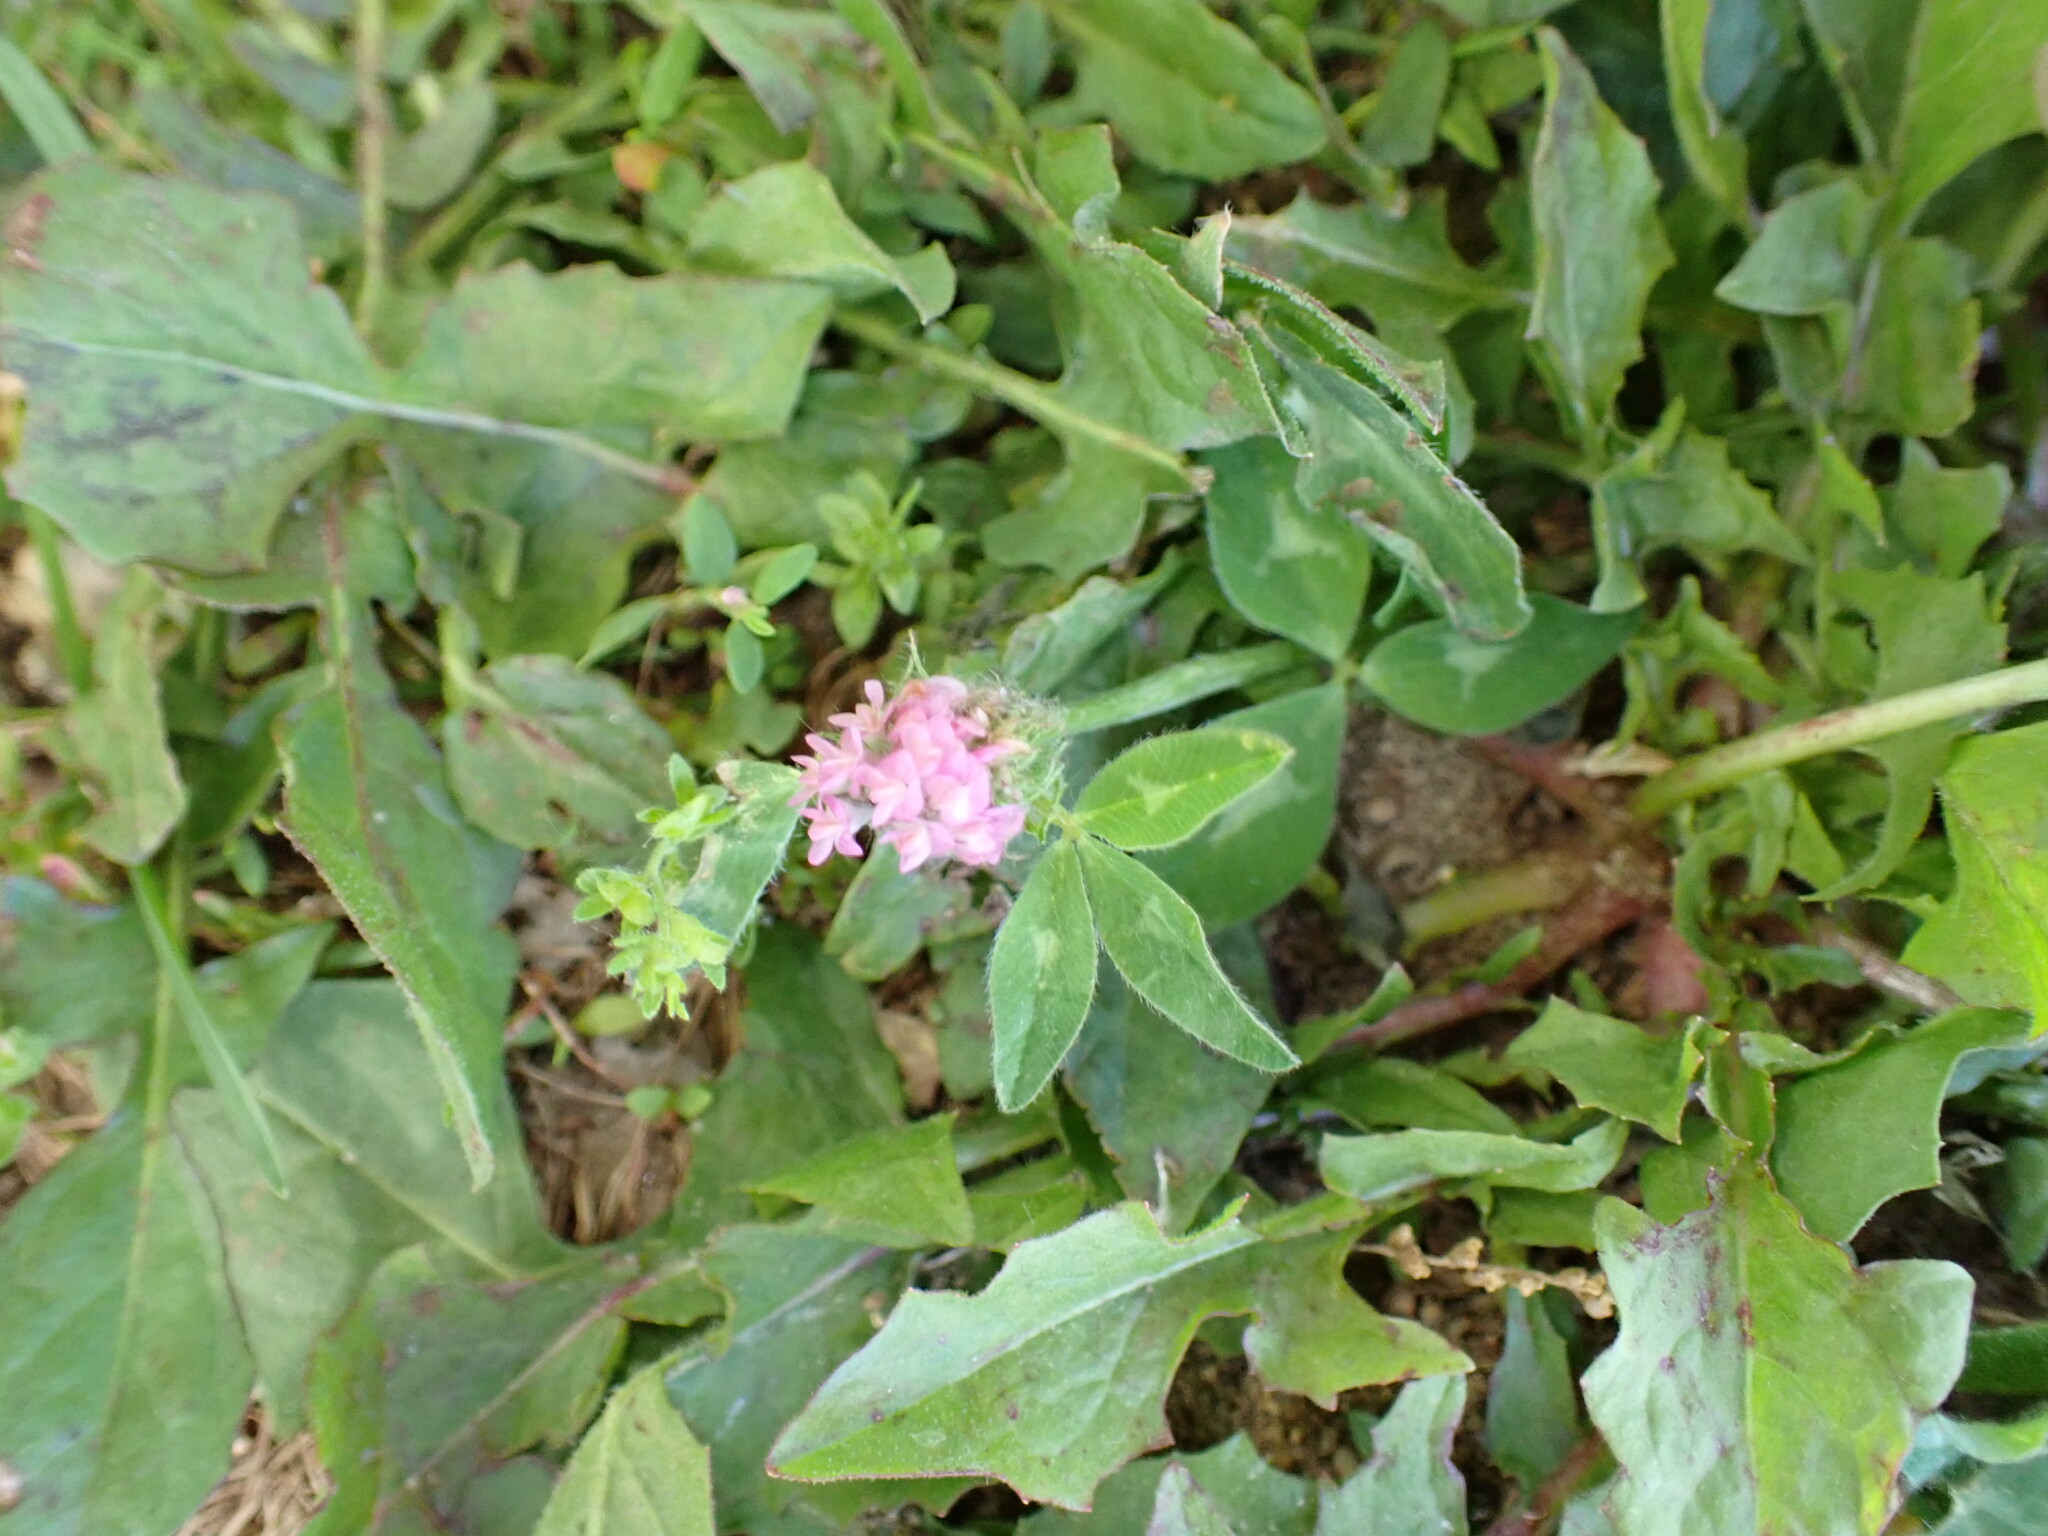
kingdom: Plantae
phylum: Tracheophyta
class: Magnoliopsida
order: Fabales
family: Fabaceae
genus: Trifolium
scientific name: Trifolium pratense
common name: Red clover
